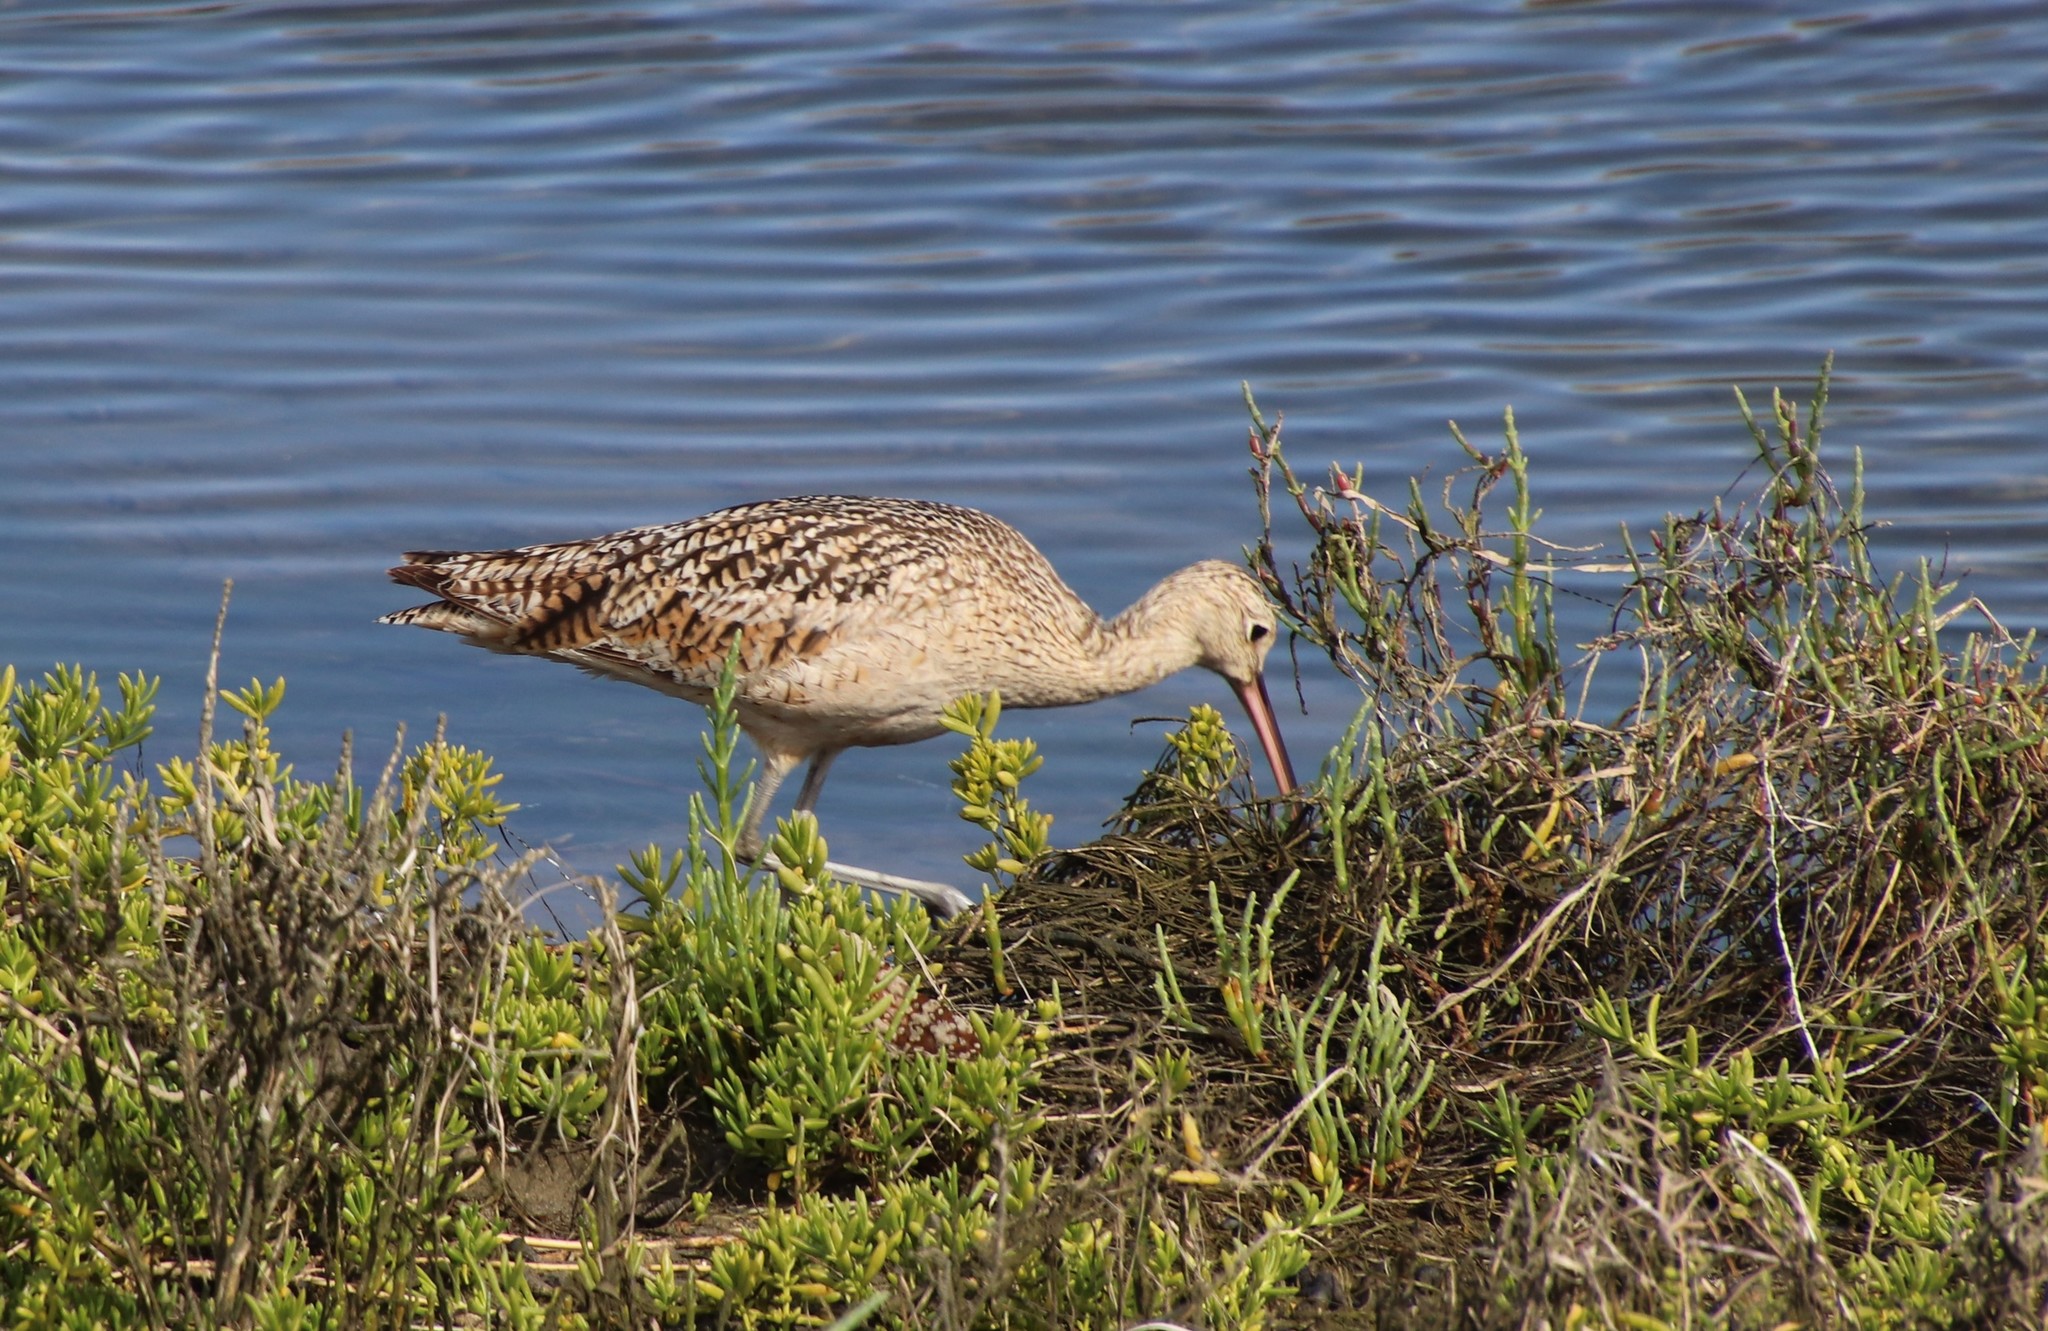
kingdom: Animalia
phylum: Chordata
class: Aves
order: Charadriiformes
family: Scolopacidae
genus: Numenius
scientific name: Numenius americanus
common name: Long-billed curlew
